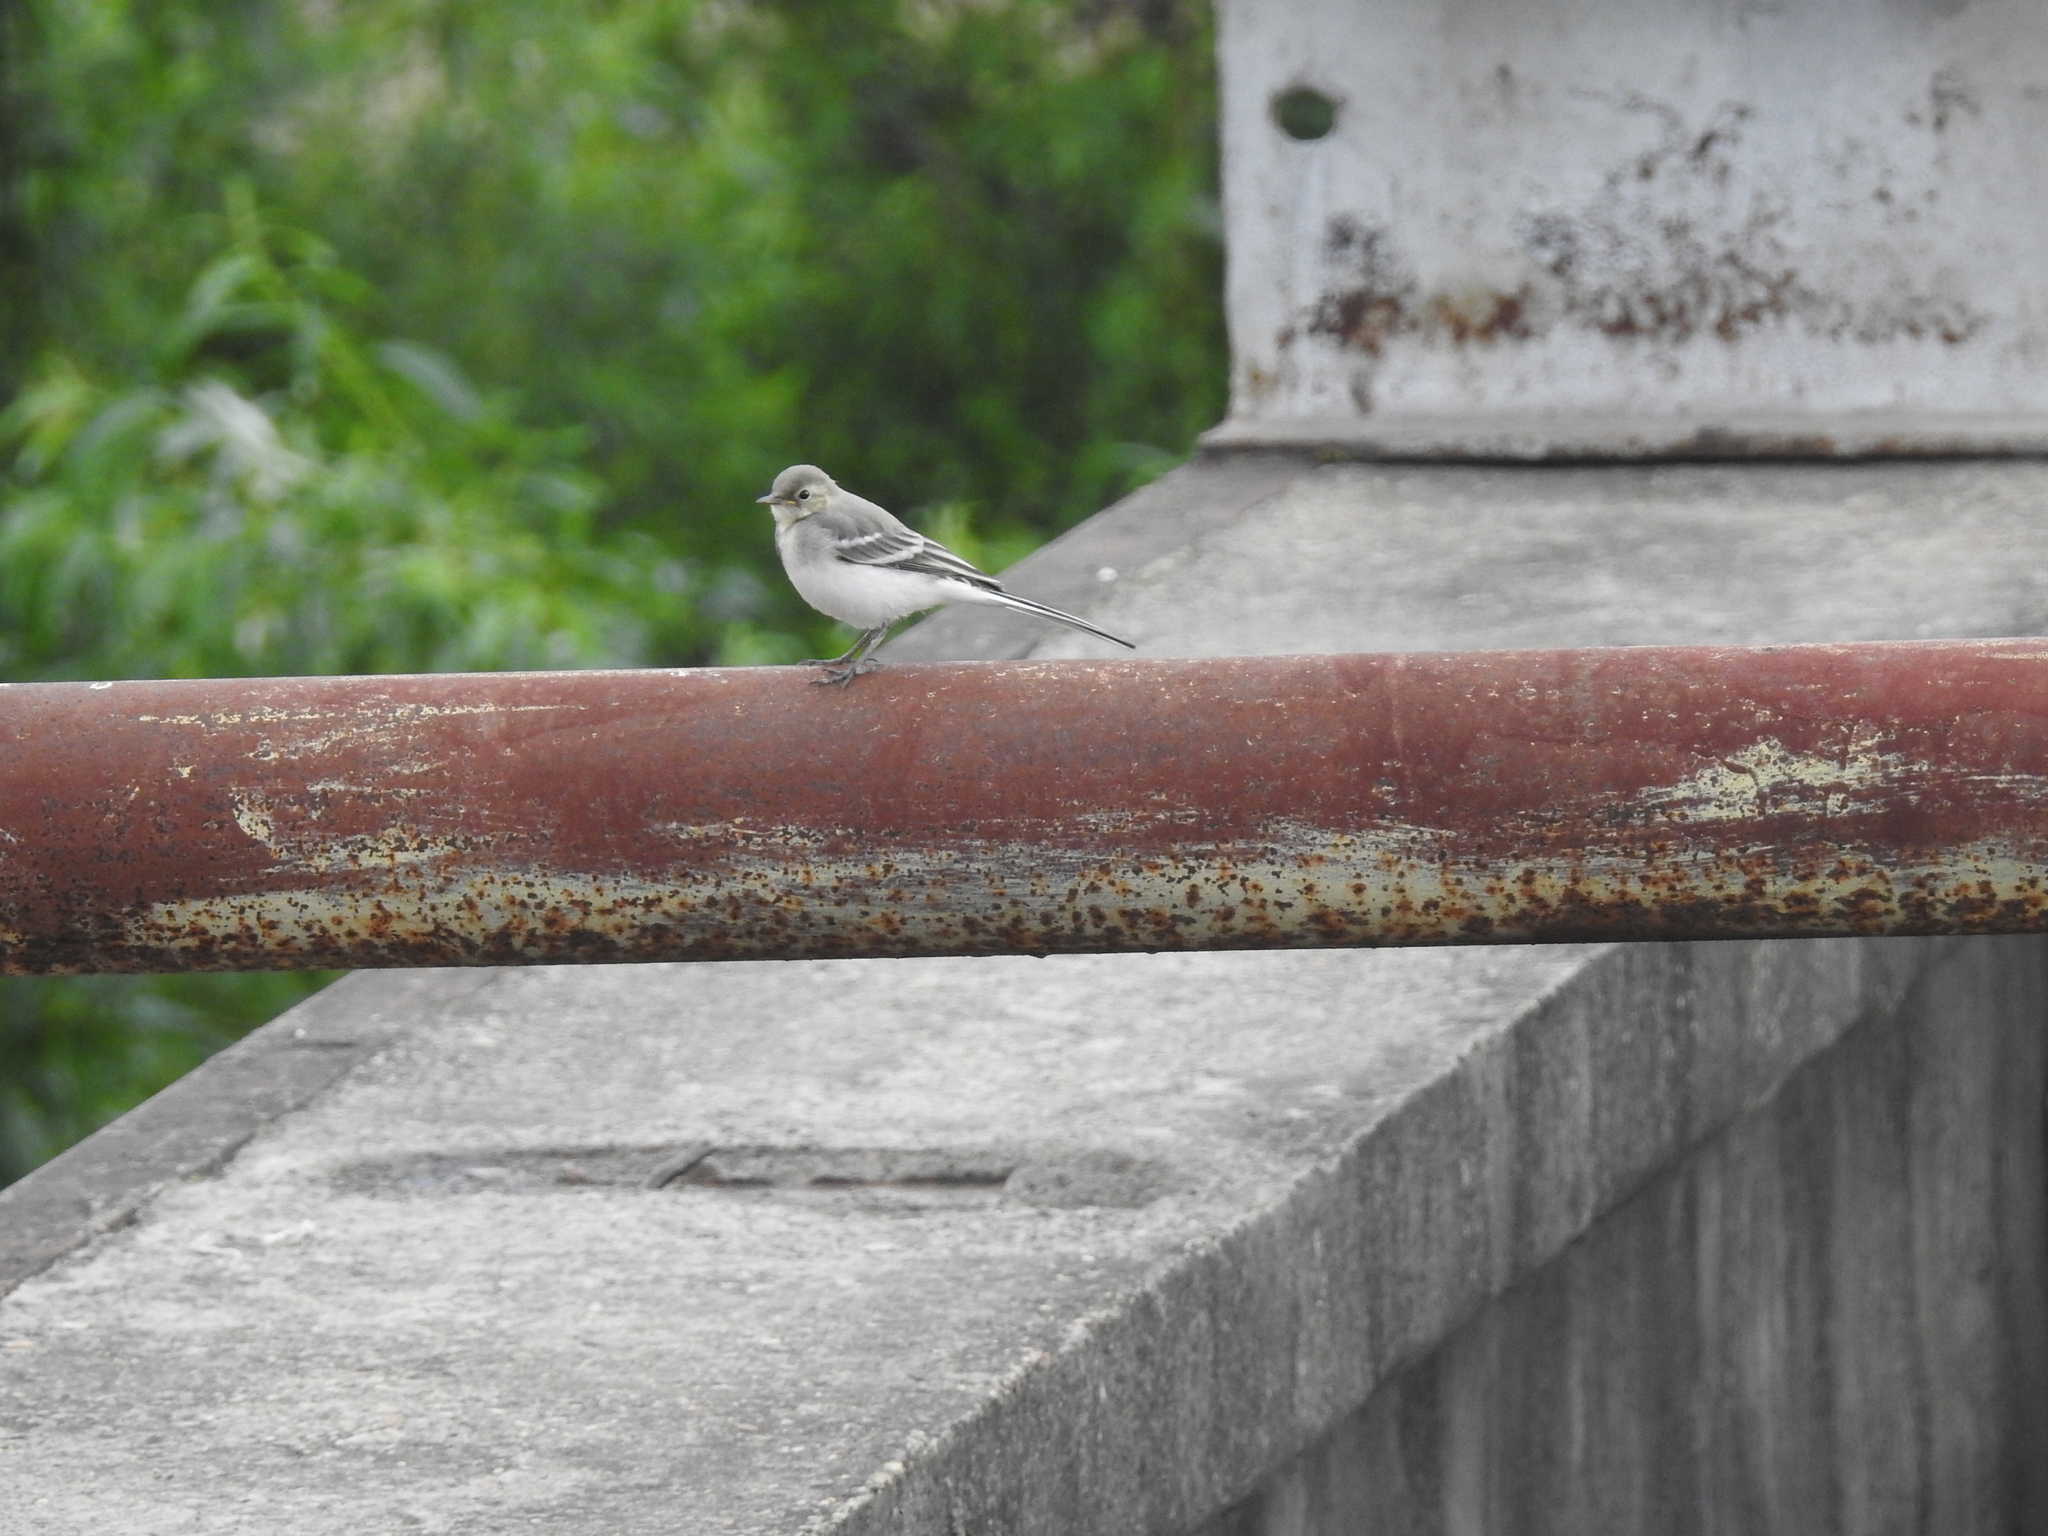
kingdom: Animalia
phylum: Chordata
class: Aves
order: Passeriformes
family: Motacillidae
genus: Motacilla
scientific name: Motacilla alba
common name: White wagtail
